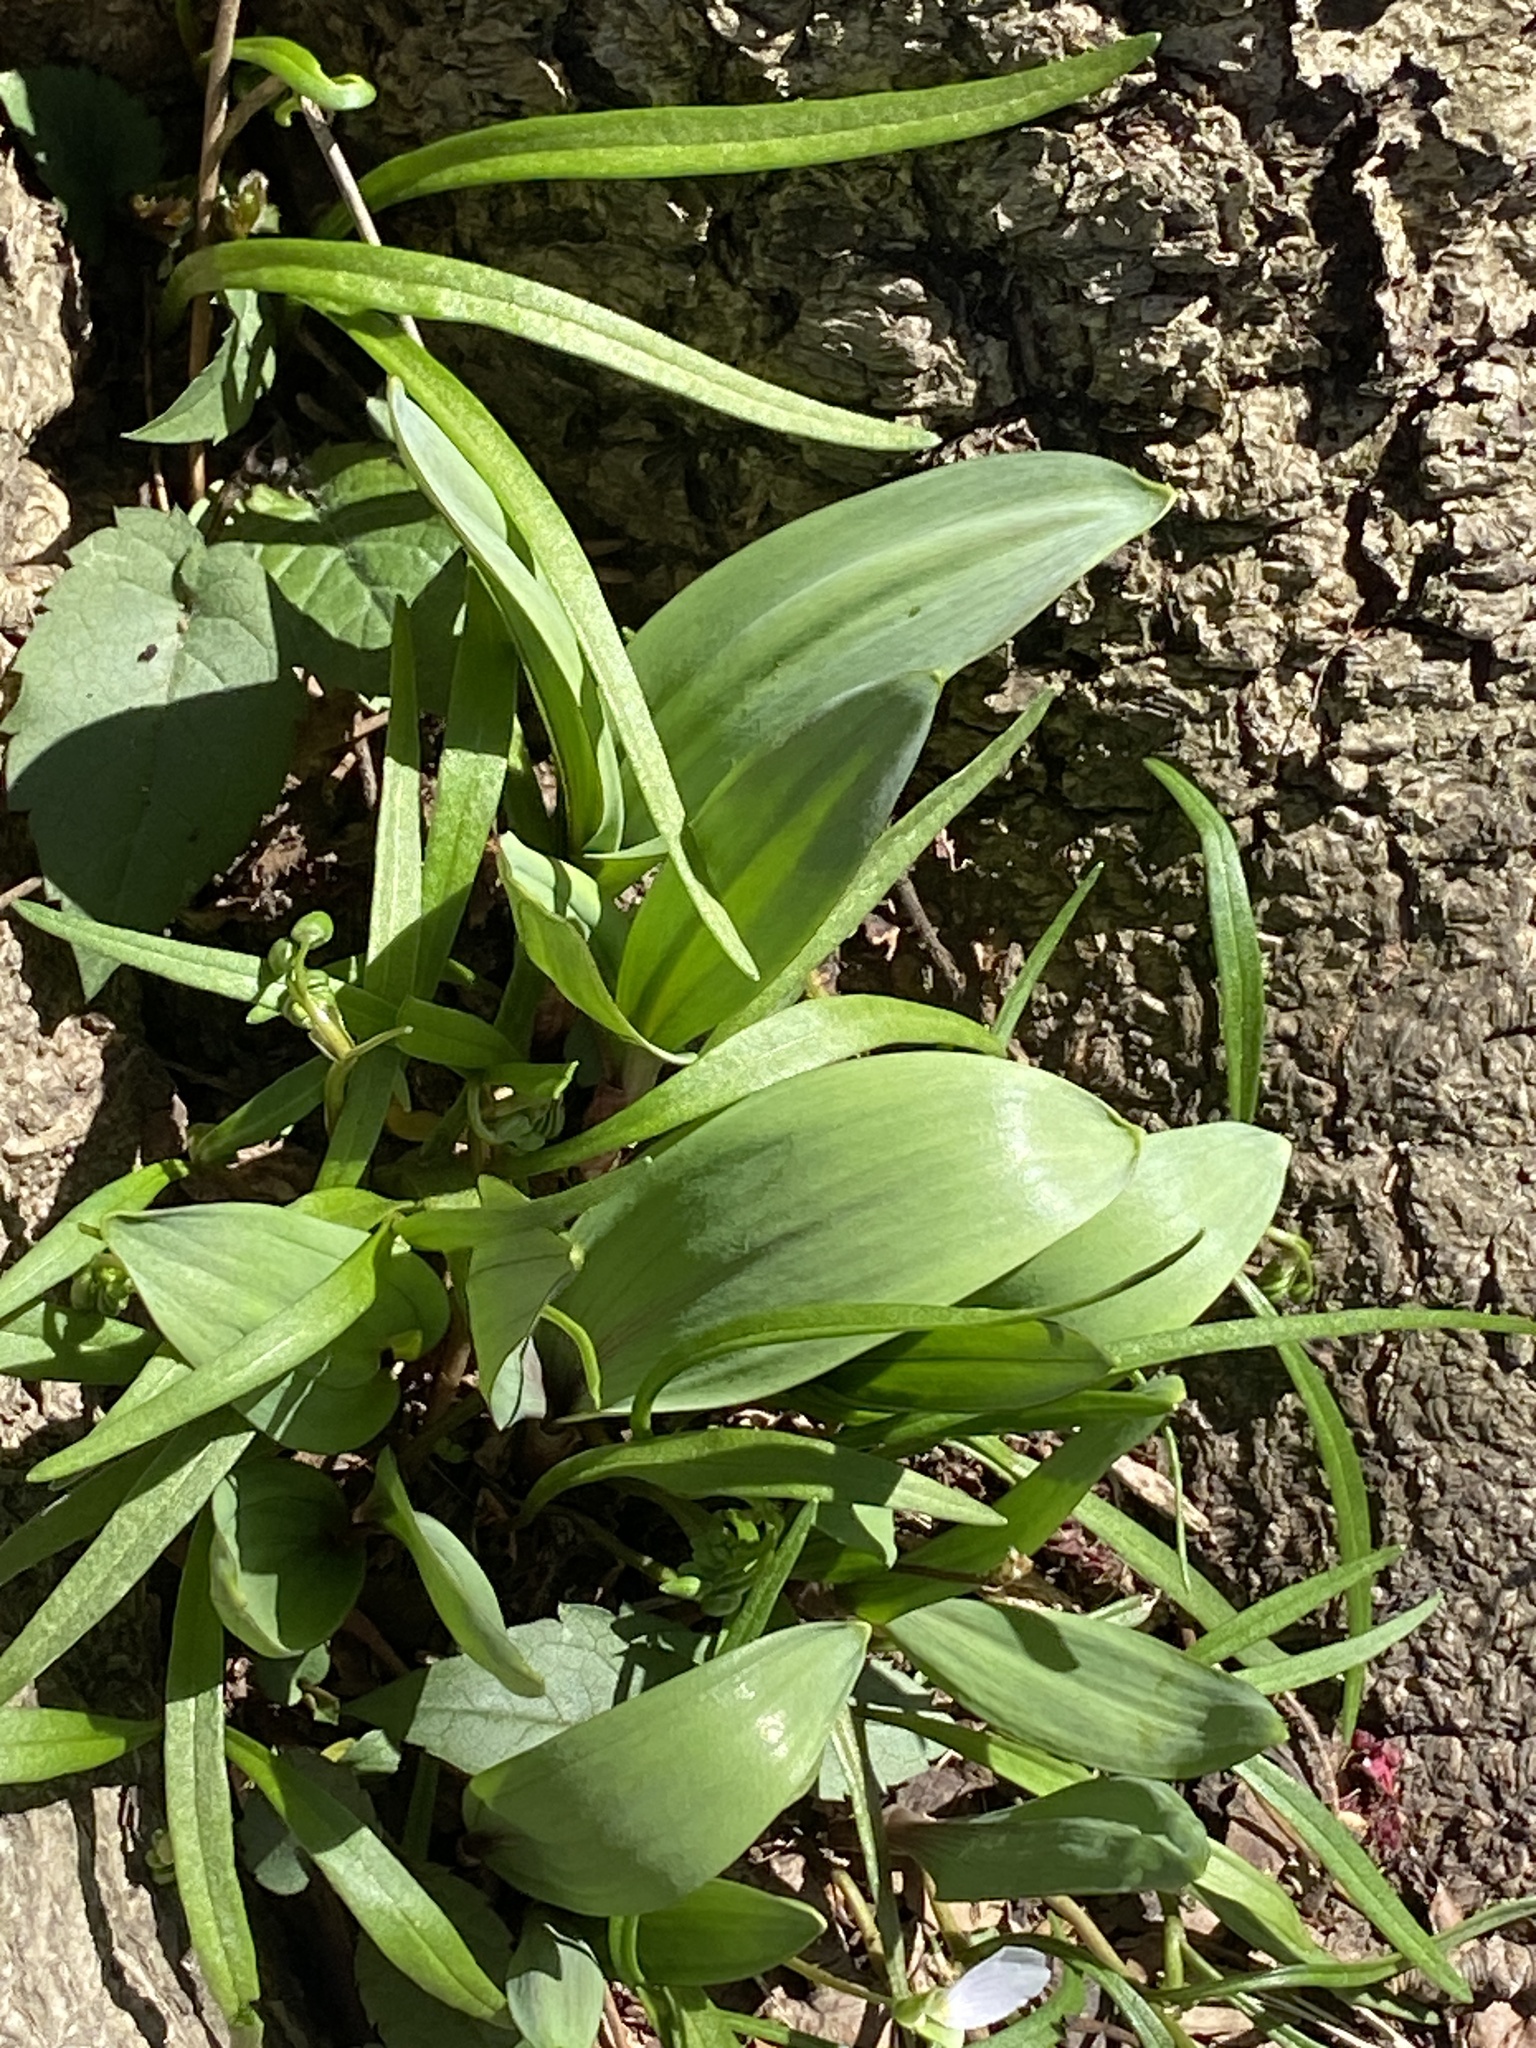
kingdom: Plantae
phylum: Tracheophyta
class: Liliopsida
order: Asparagales
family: Amaryllidaceae
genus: Allium
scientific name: Allium tricoccum
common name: Ramp
